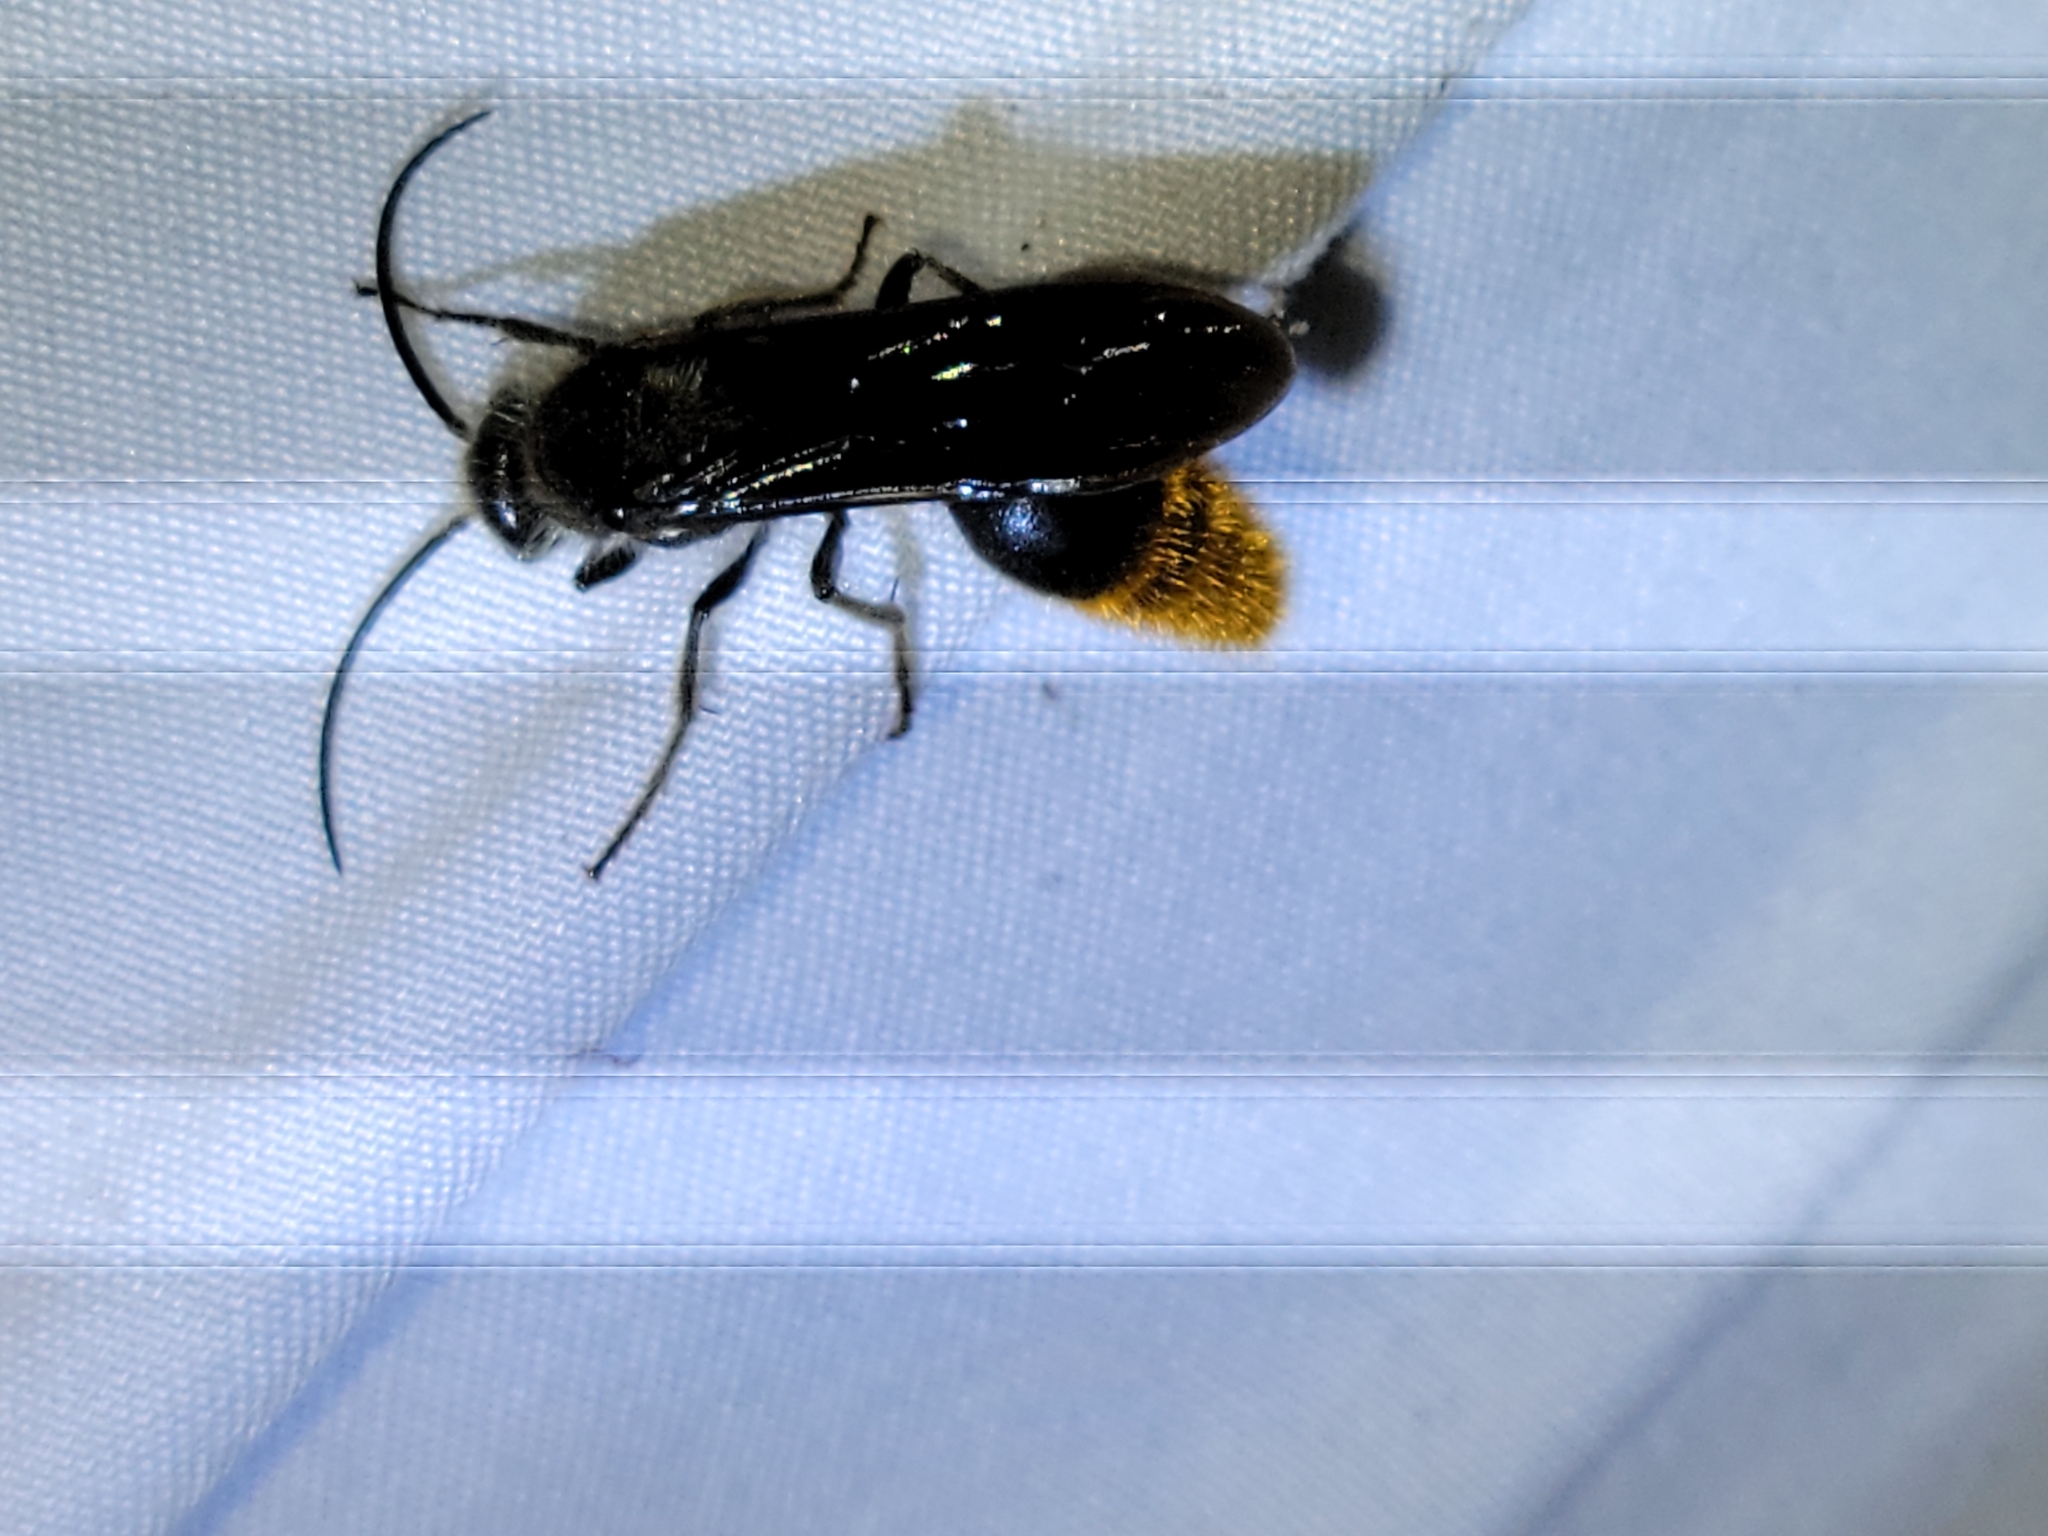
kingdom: Animalia
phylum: Arthropoda
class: Insecta
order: Hymenoptera
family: Mutillidae
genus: Sphaeropthalma
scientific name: Sphaeropthalma marpesia
